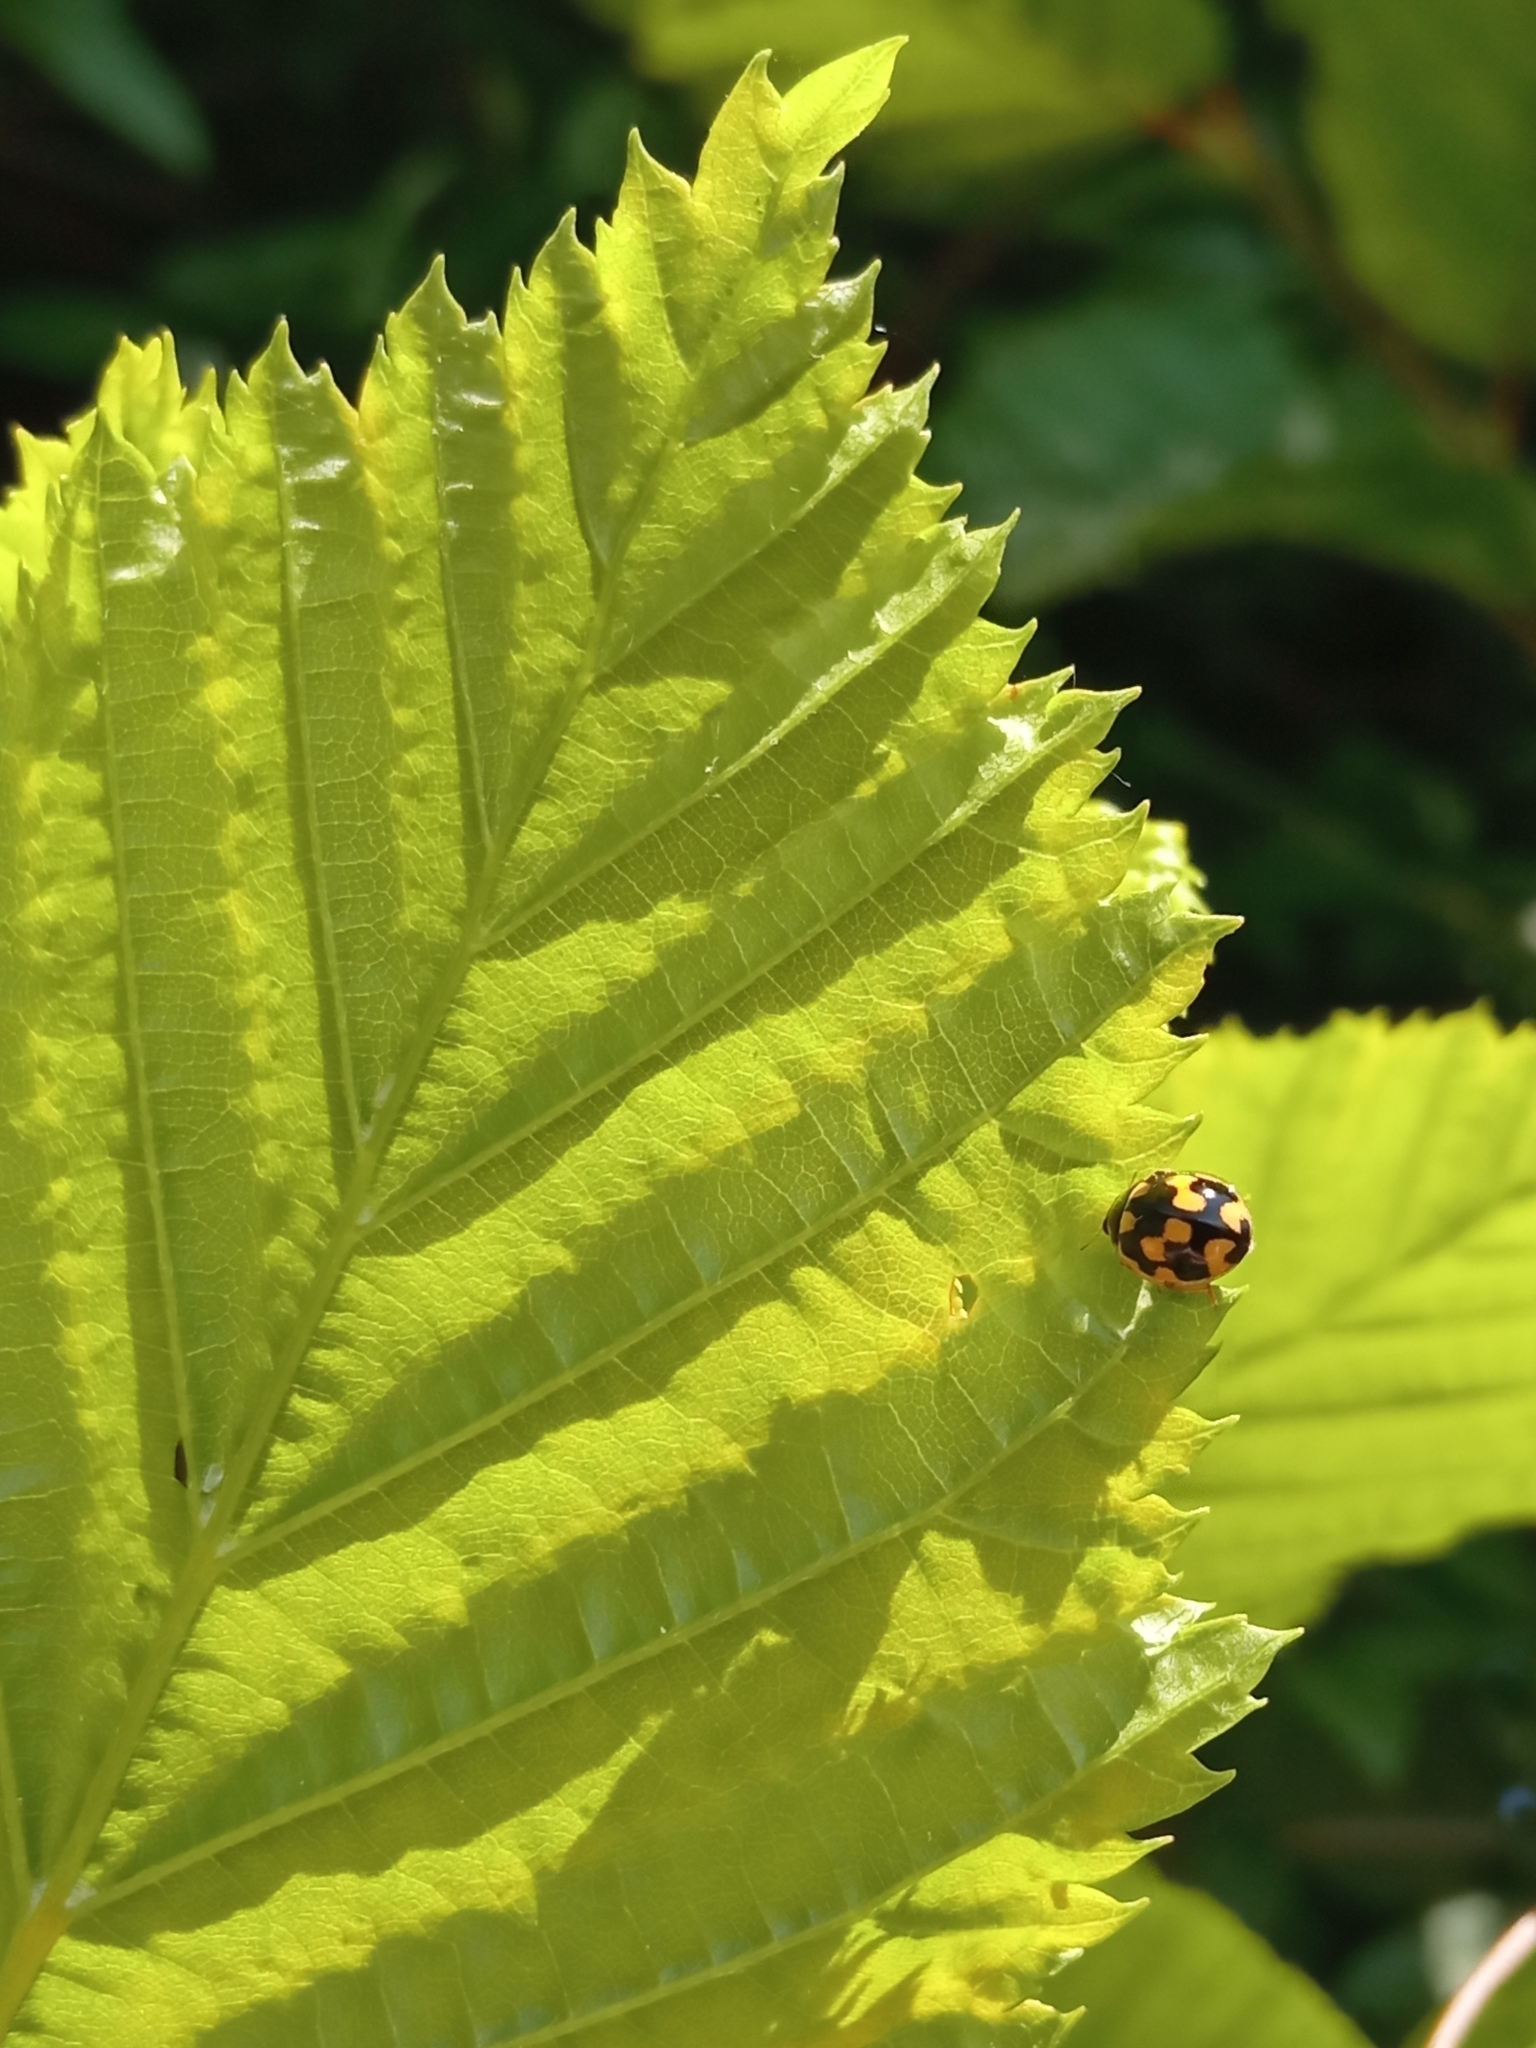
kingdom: Animalia
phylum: Arthropoda
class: Insecta
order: Coleoptera
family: Coccinellidae
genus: Propylaea
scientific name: Propylaea quatuordecimpunctata
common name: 14-spotted ladybird beetle
